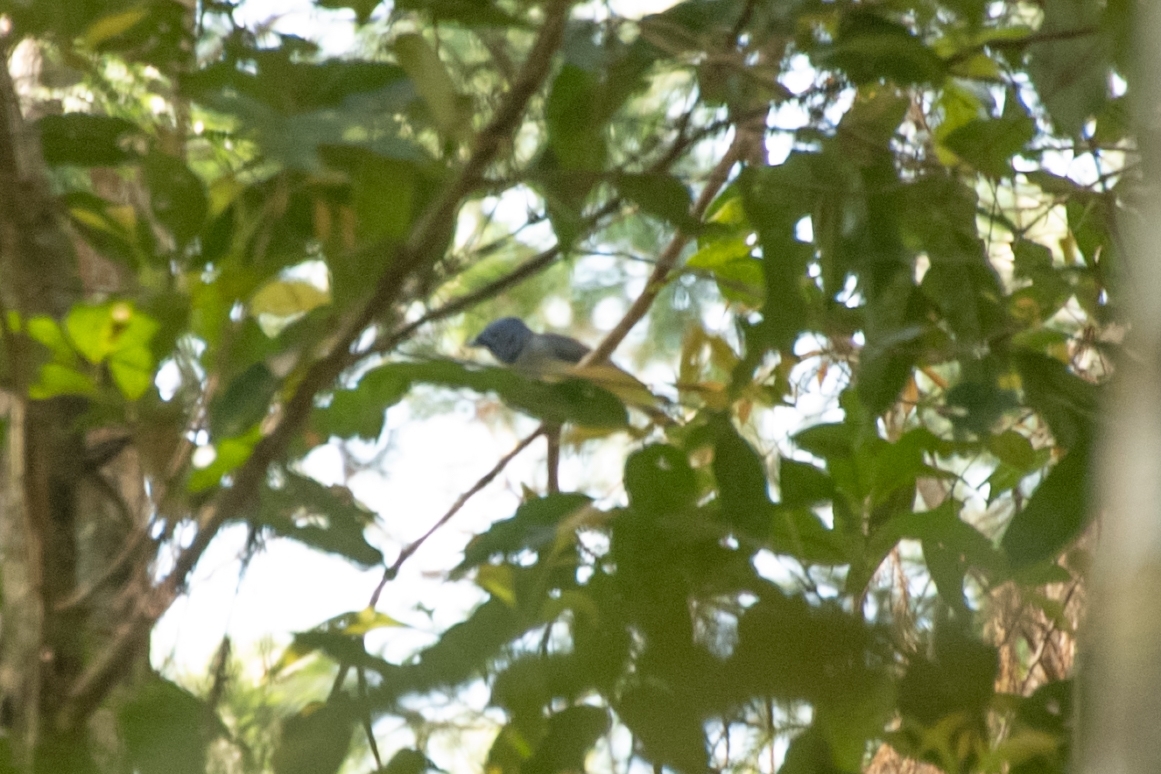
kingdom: Animalia
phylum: Chordata
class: Aves
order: Passeriformes
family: Monarchidae
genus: Hypothymis
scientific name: Hypothymis azurea
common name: Black-naped monarch
